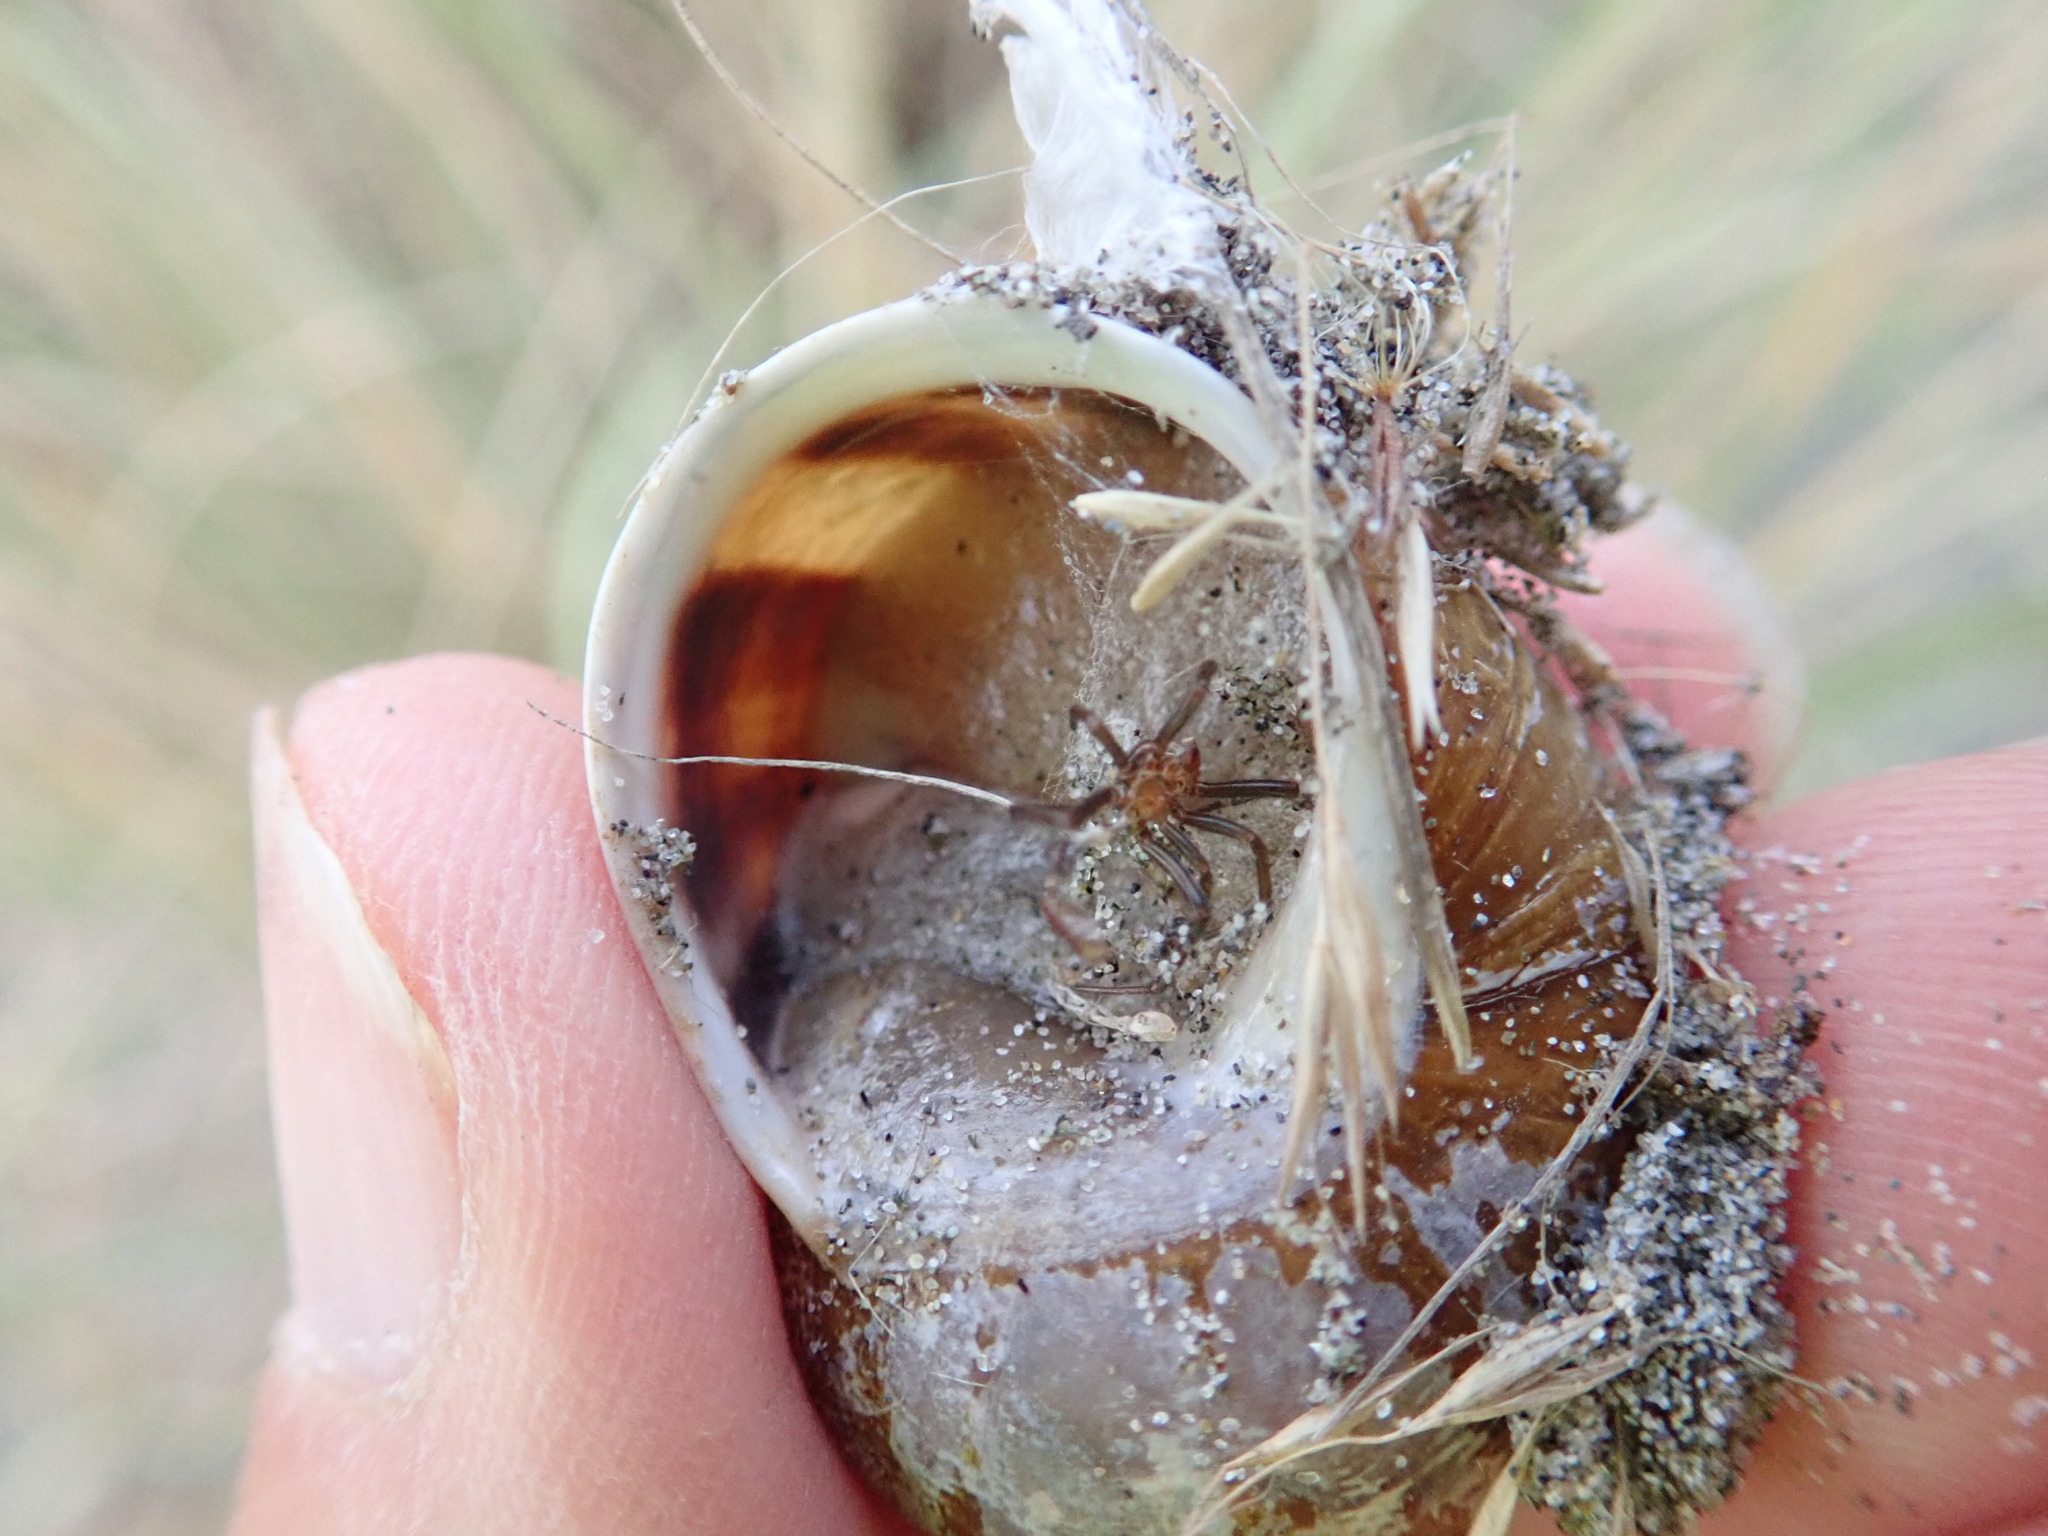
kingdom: Animalia
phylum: Mollusca
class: Gastropoda
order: Stylommatophora
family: Helicidae
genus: Cornu
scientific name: Cornu aspersum
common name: Brown garden snail
